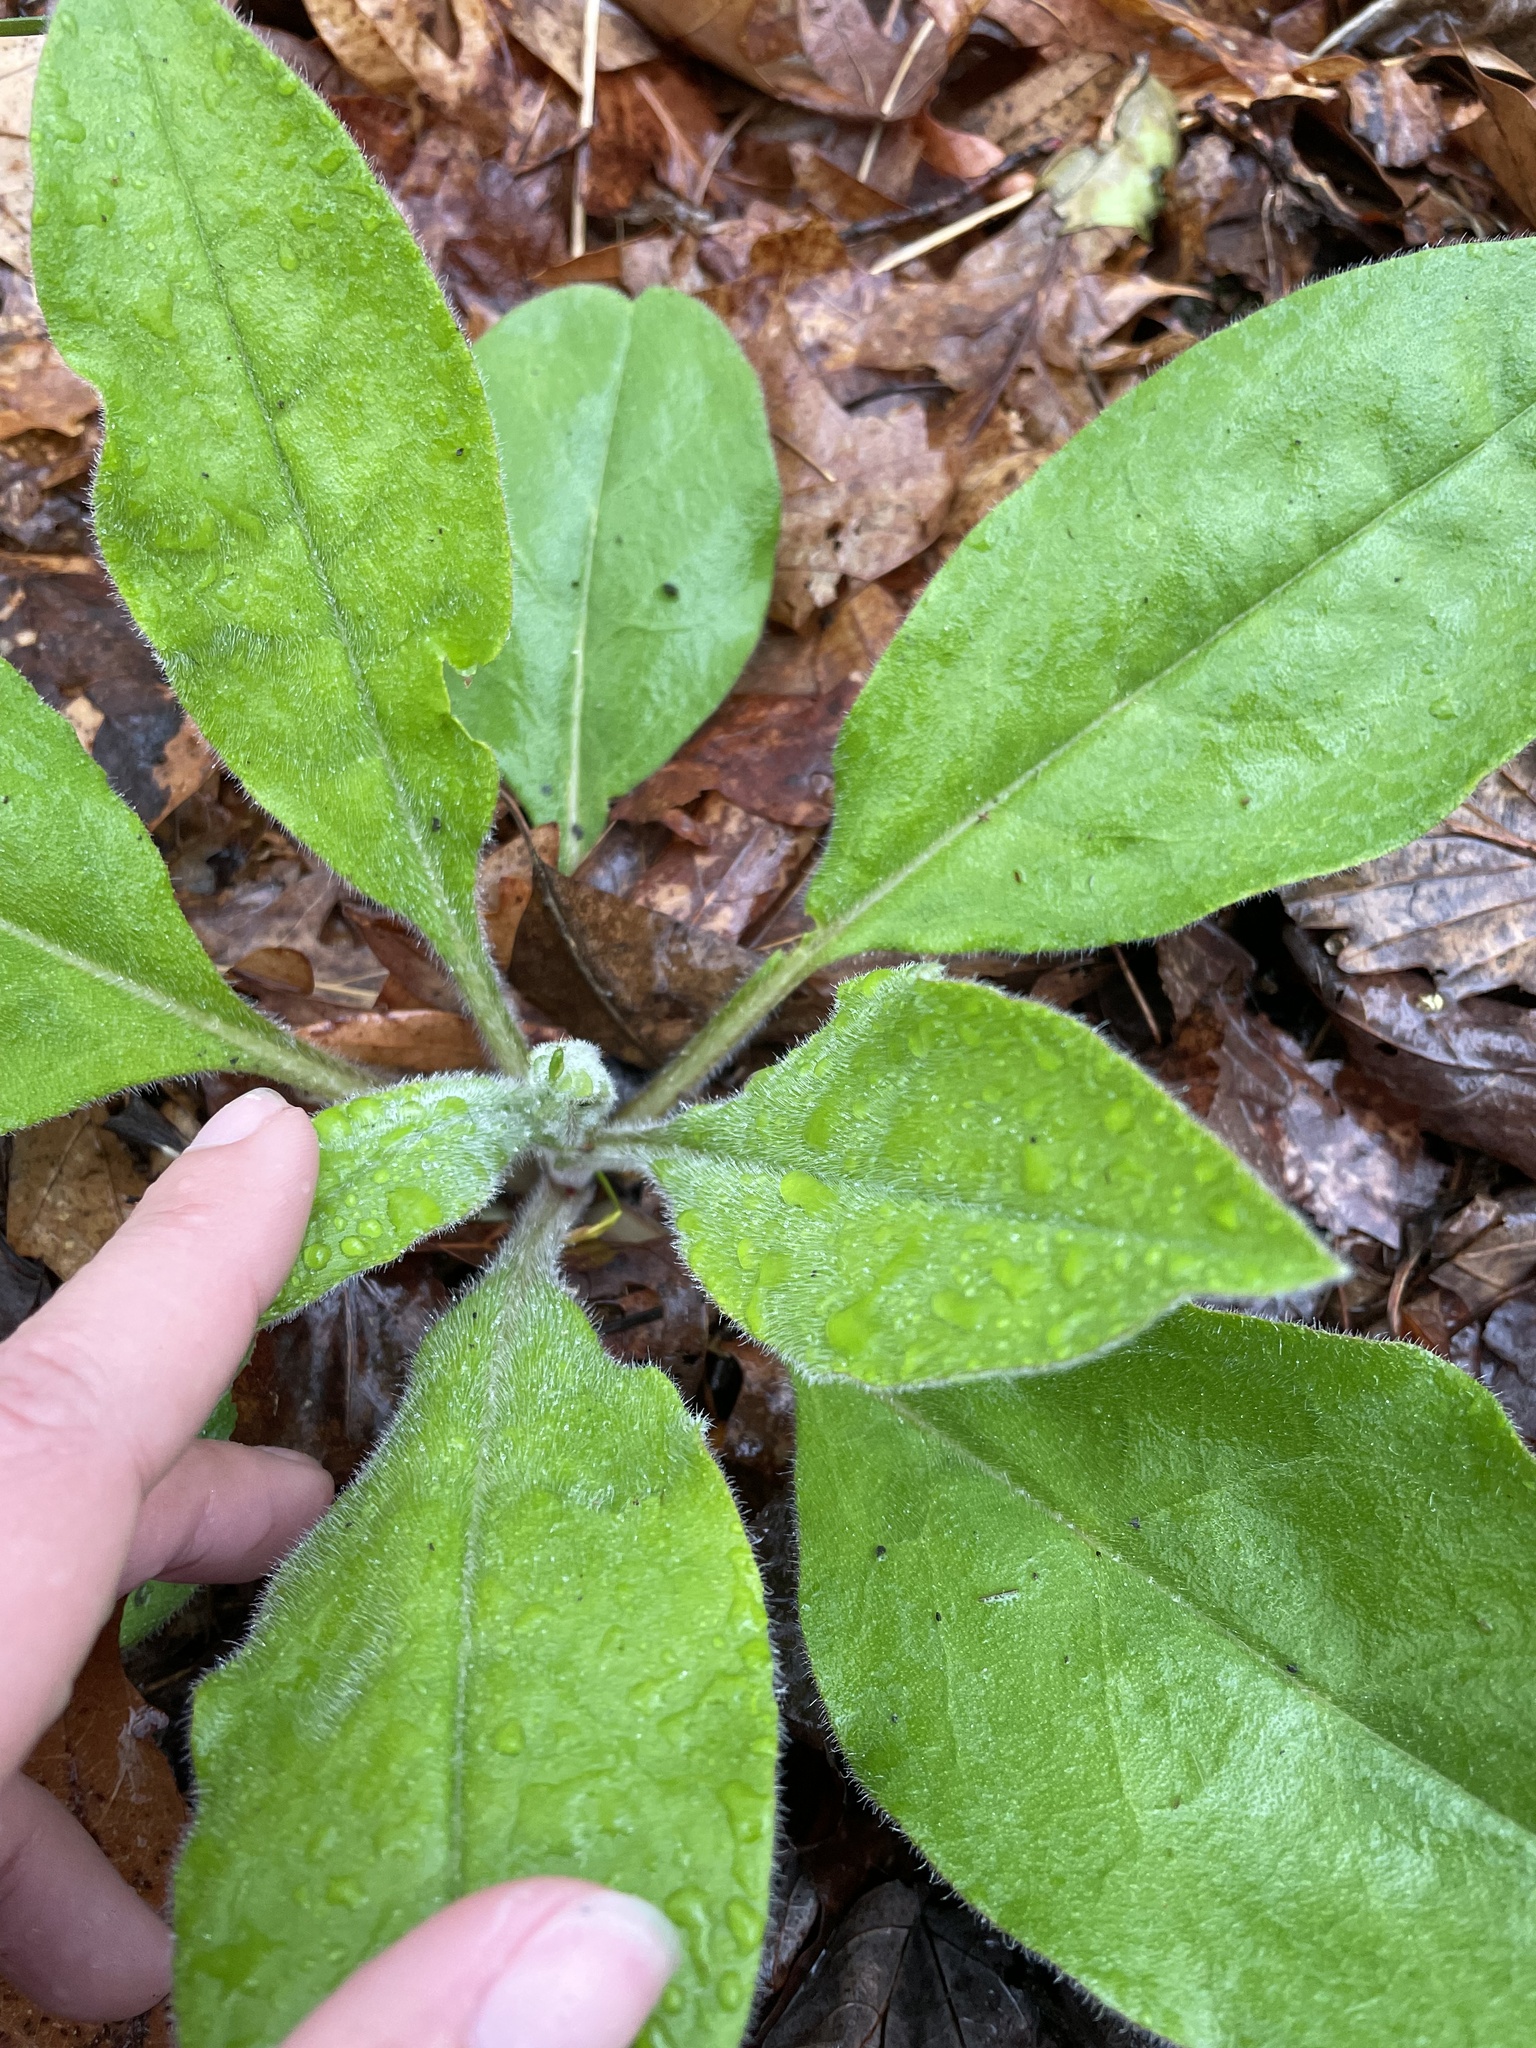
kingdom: Plantae
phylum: Tracheophyta
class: Magnoliopsida
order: Boraginales
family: Boraginaceae
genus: Andersonglossum
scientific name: Andersonglossum virginianum
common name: Wild comfrey
